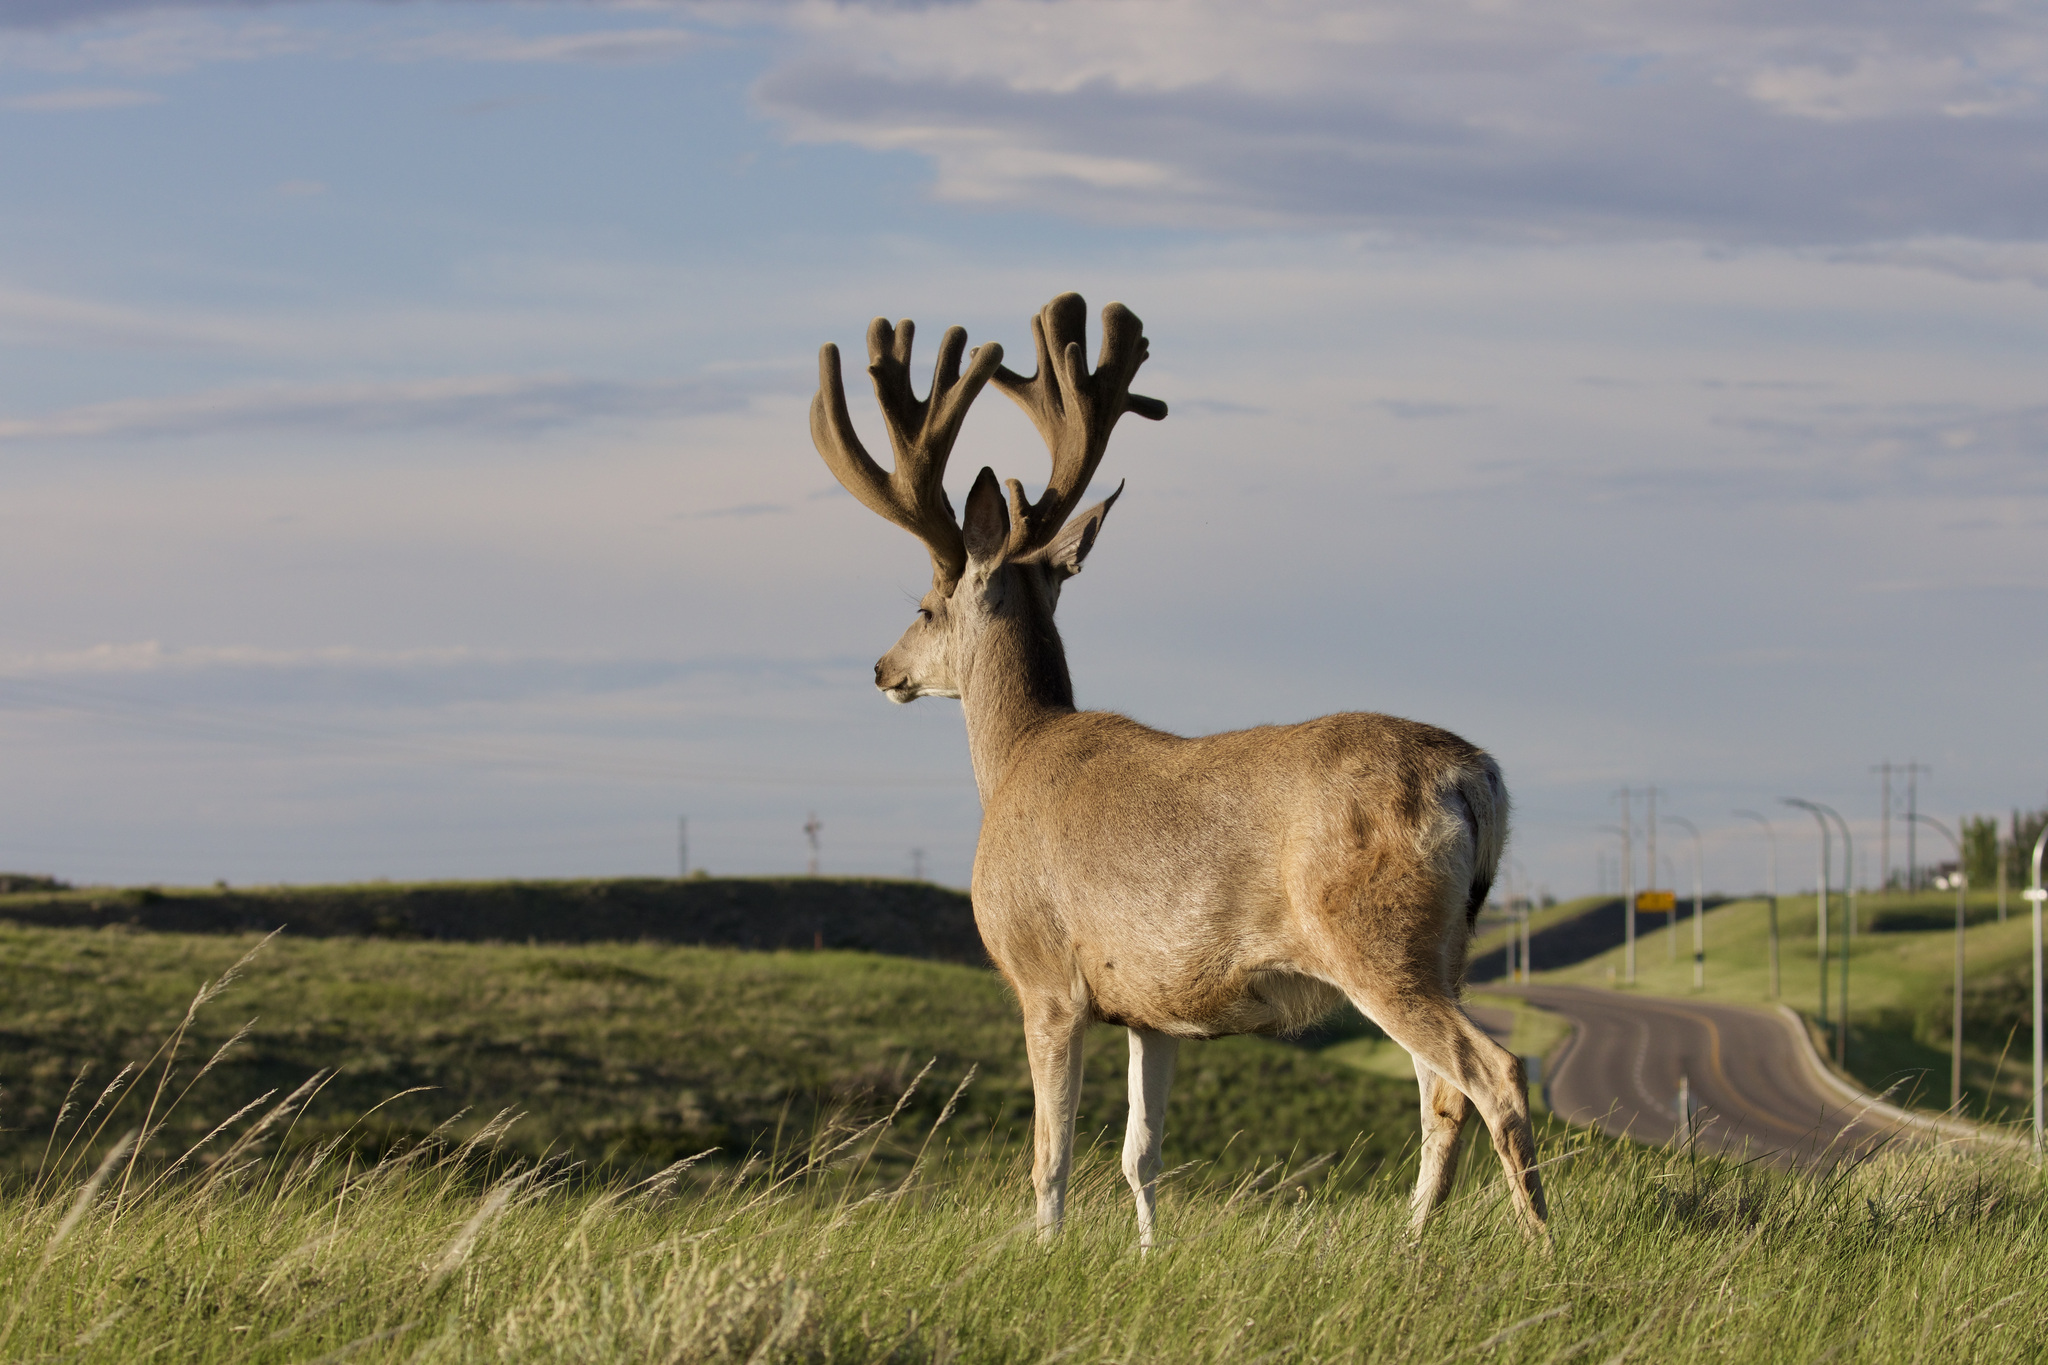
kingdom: Animalia
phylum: Chordata
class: Mammalia
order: Artiodactyla
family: Cervidae
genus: Odocoileus
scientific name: Odocoileus hemionus
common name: Mule deer
